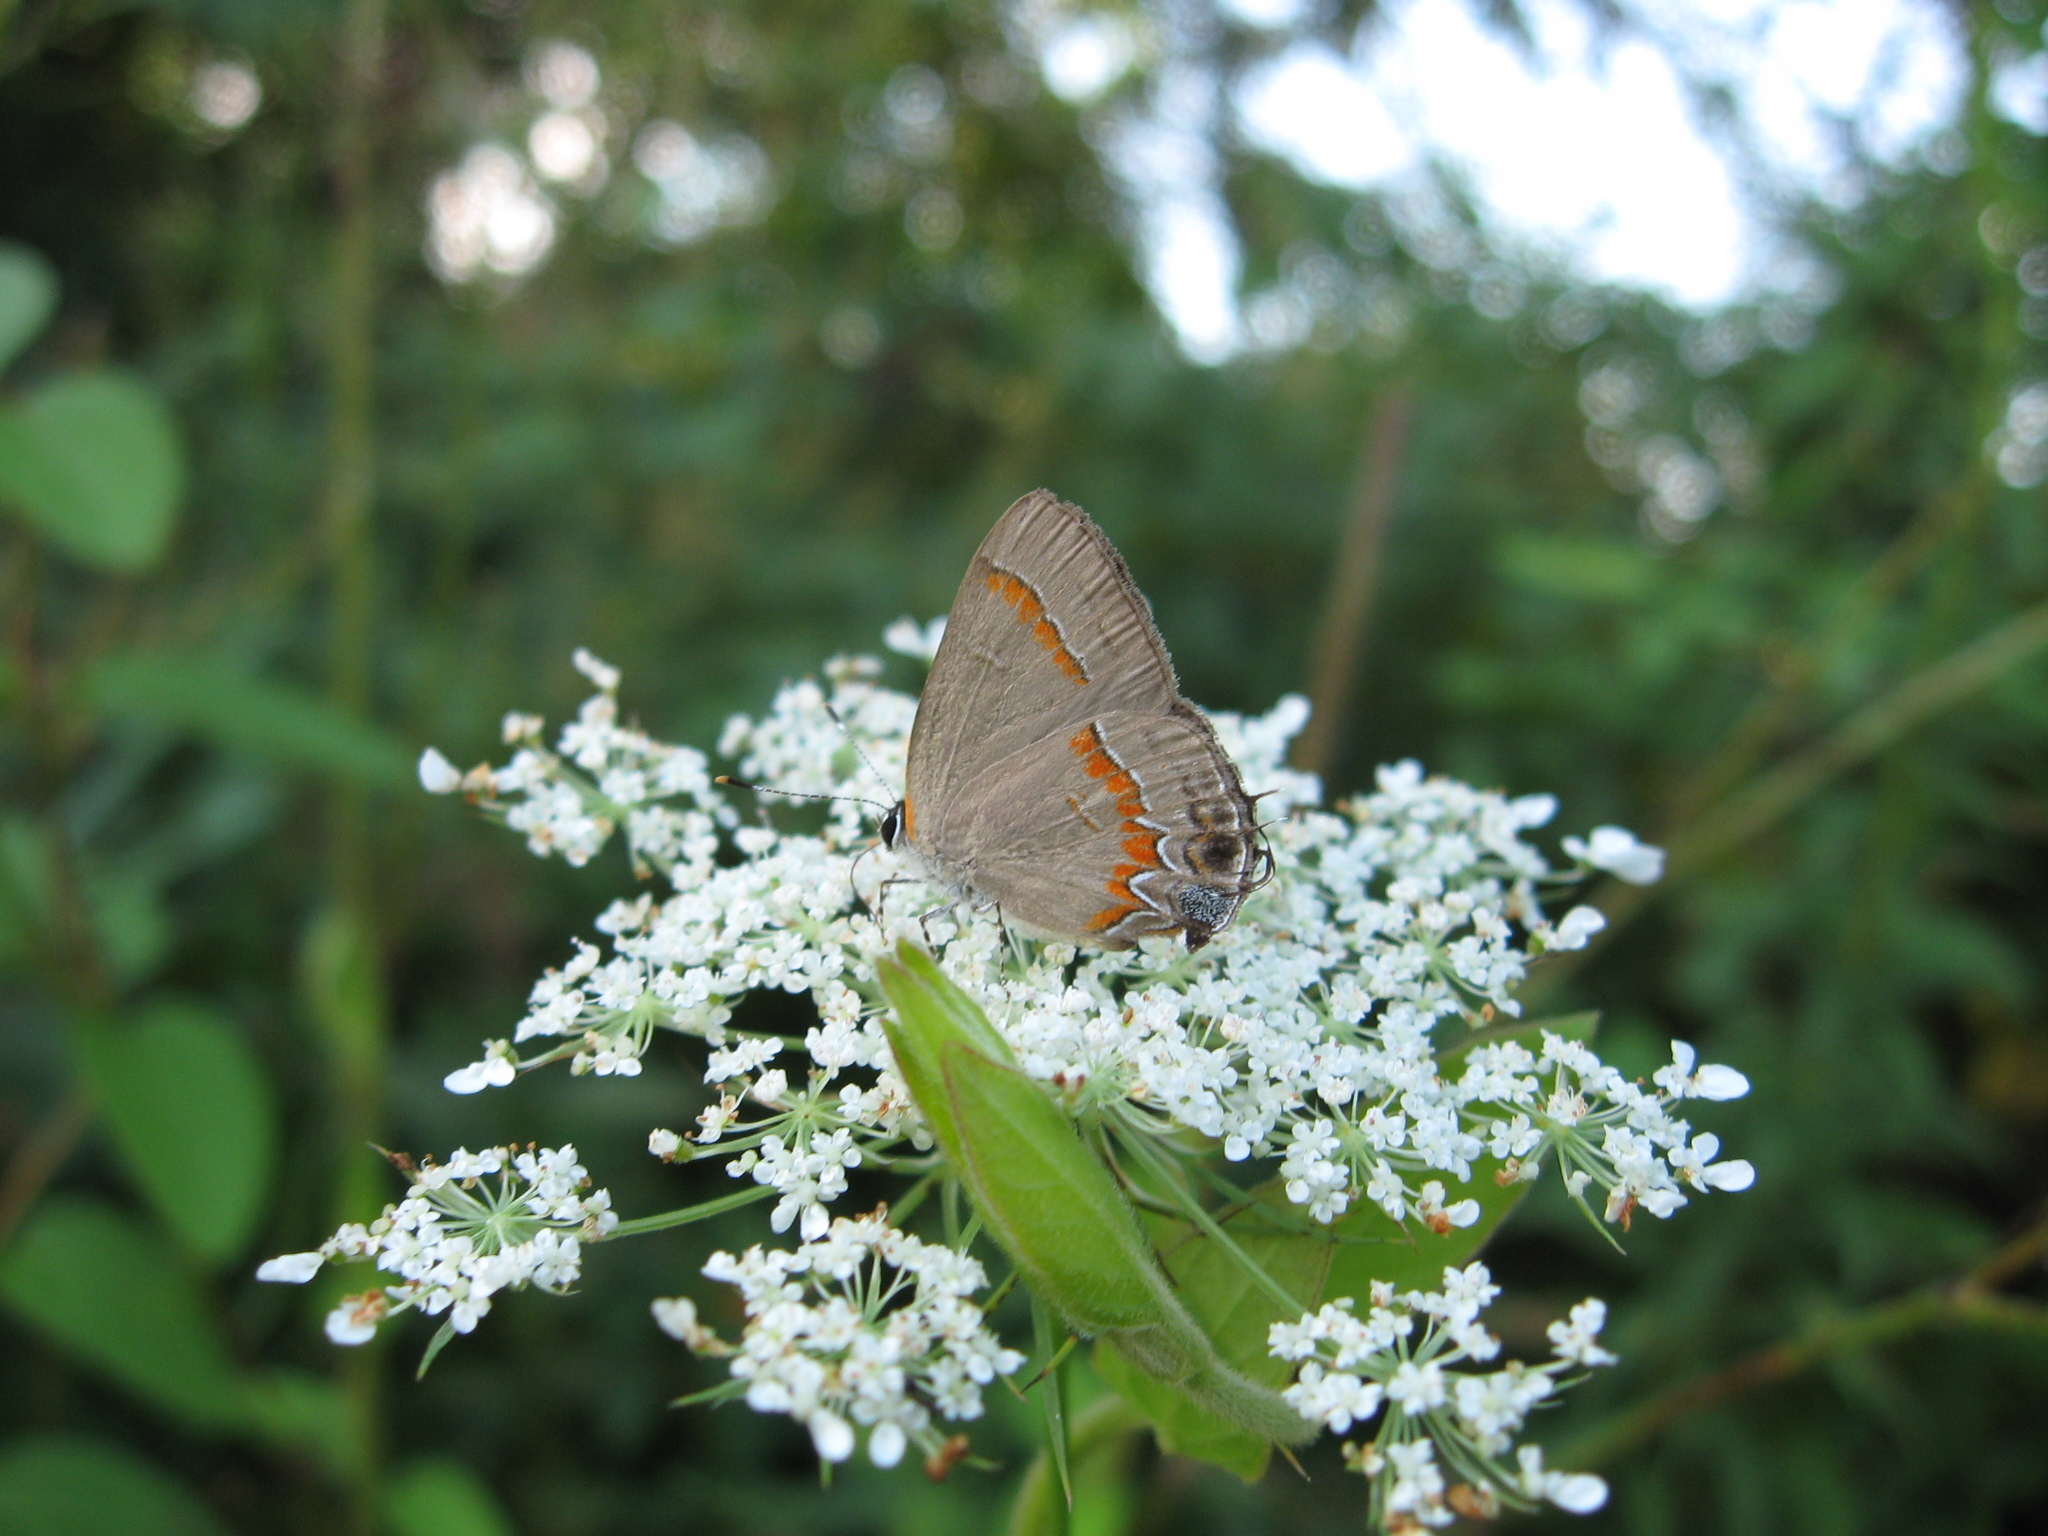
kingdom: Animalia
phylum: Arthropoda
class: Insecta
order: Lepidoptera
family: Lycaenidae
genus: Calycopis
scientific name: Calycopis cecrops
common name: Red-banded hairstreak
